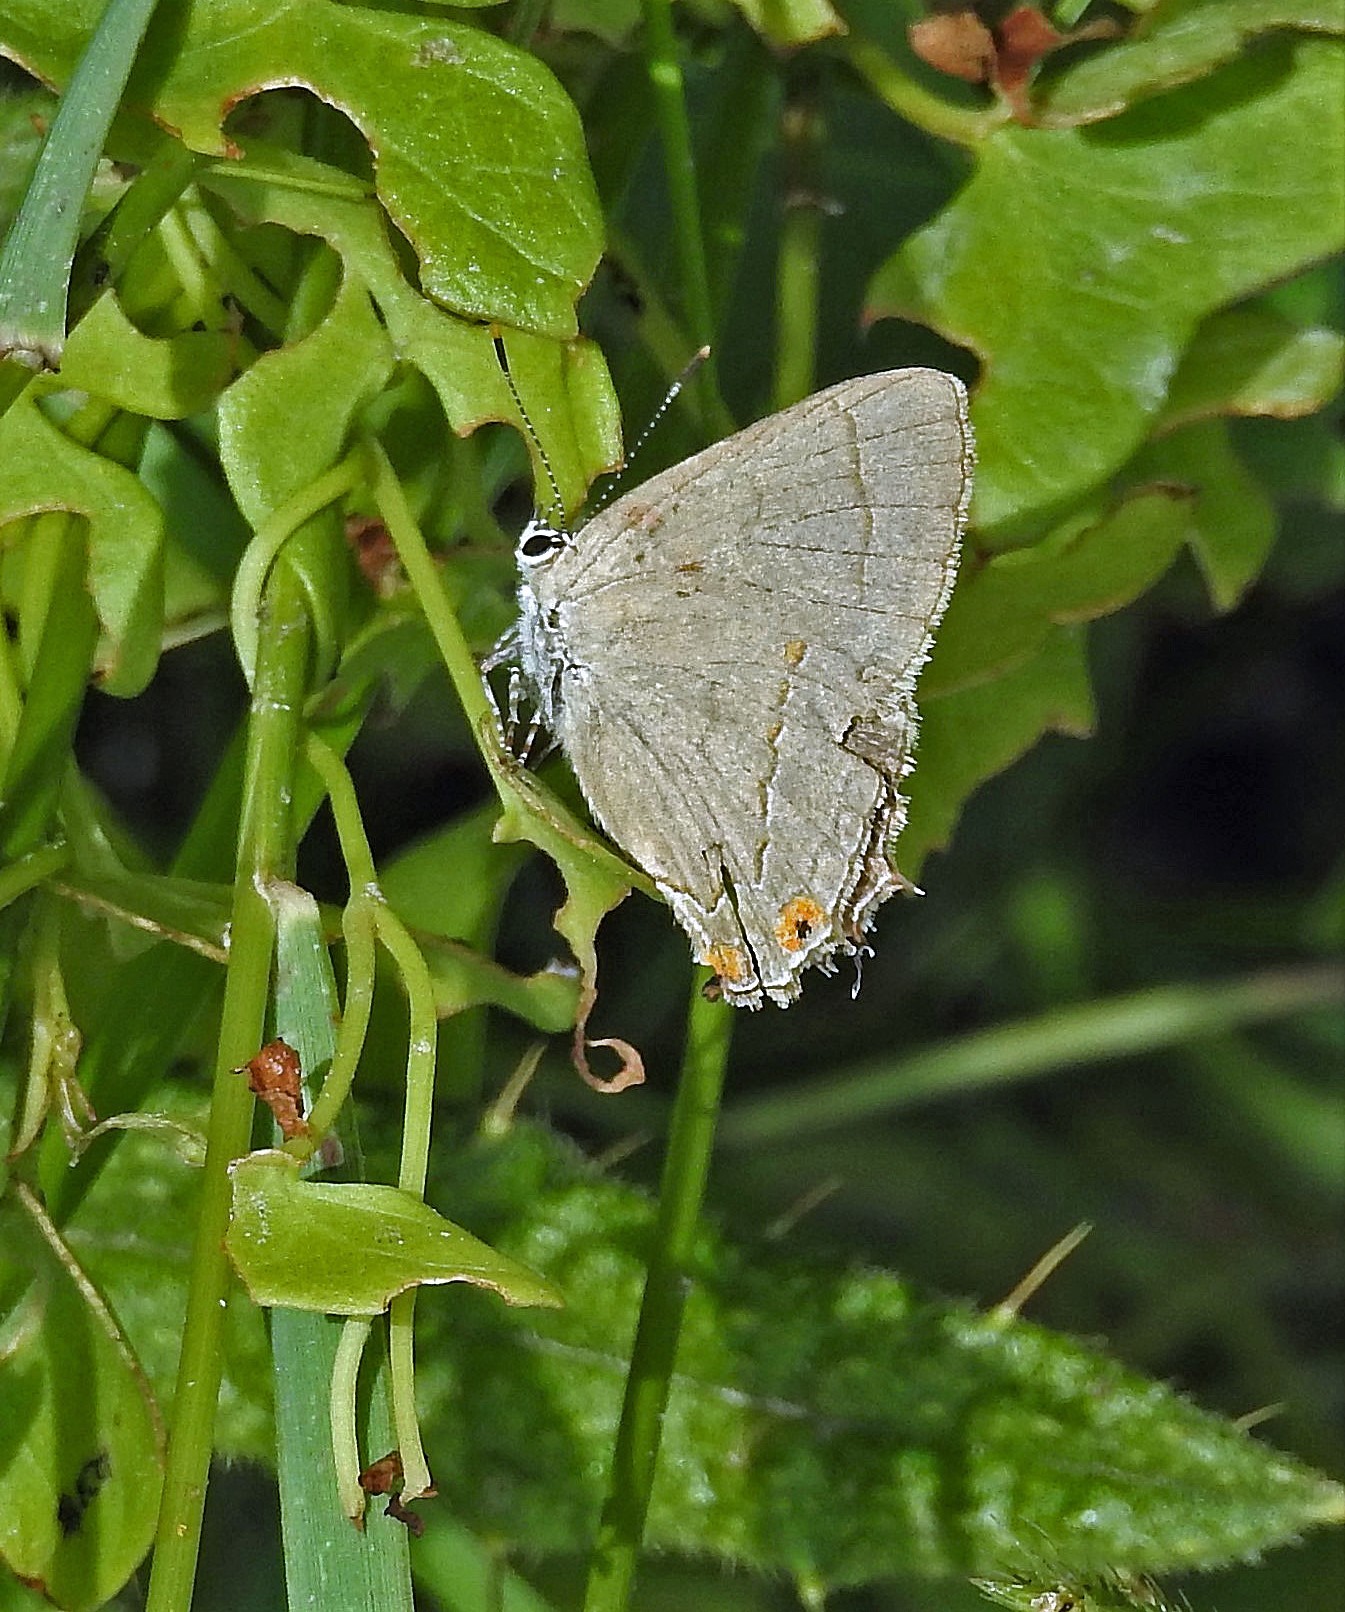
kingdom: Animalia
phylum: Arthropoda
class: Insecta
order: Lepidoptera
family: Lycaenidae
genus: Badecla
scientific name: Badecla
